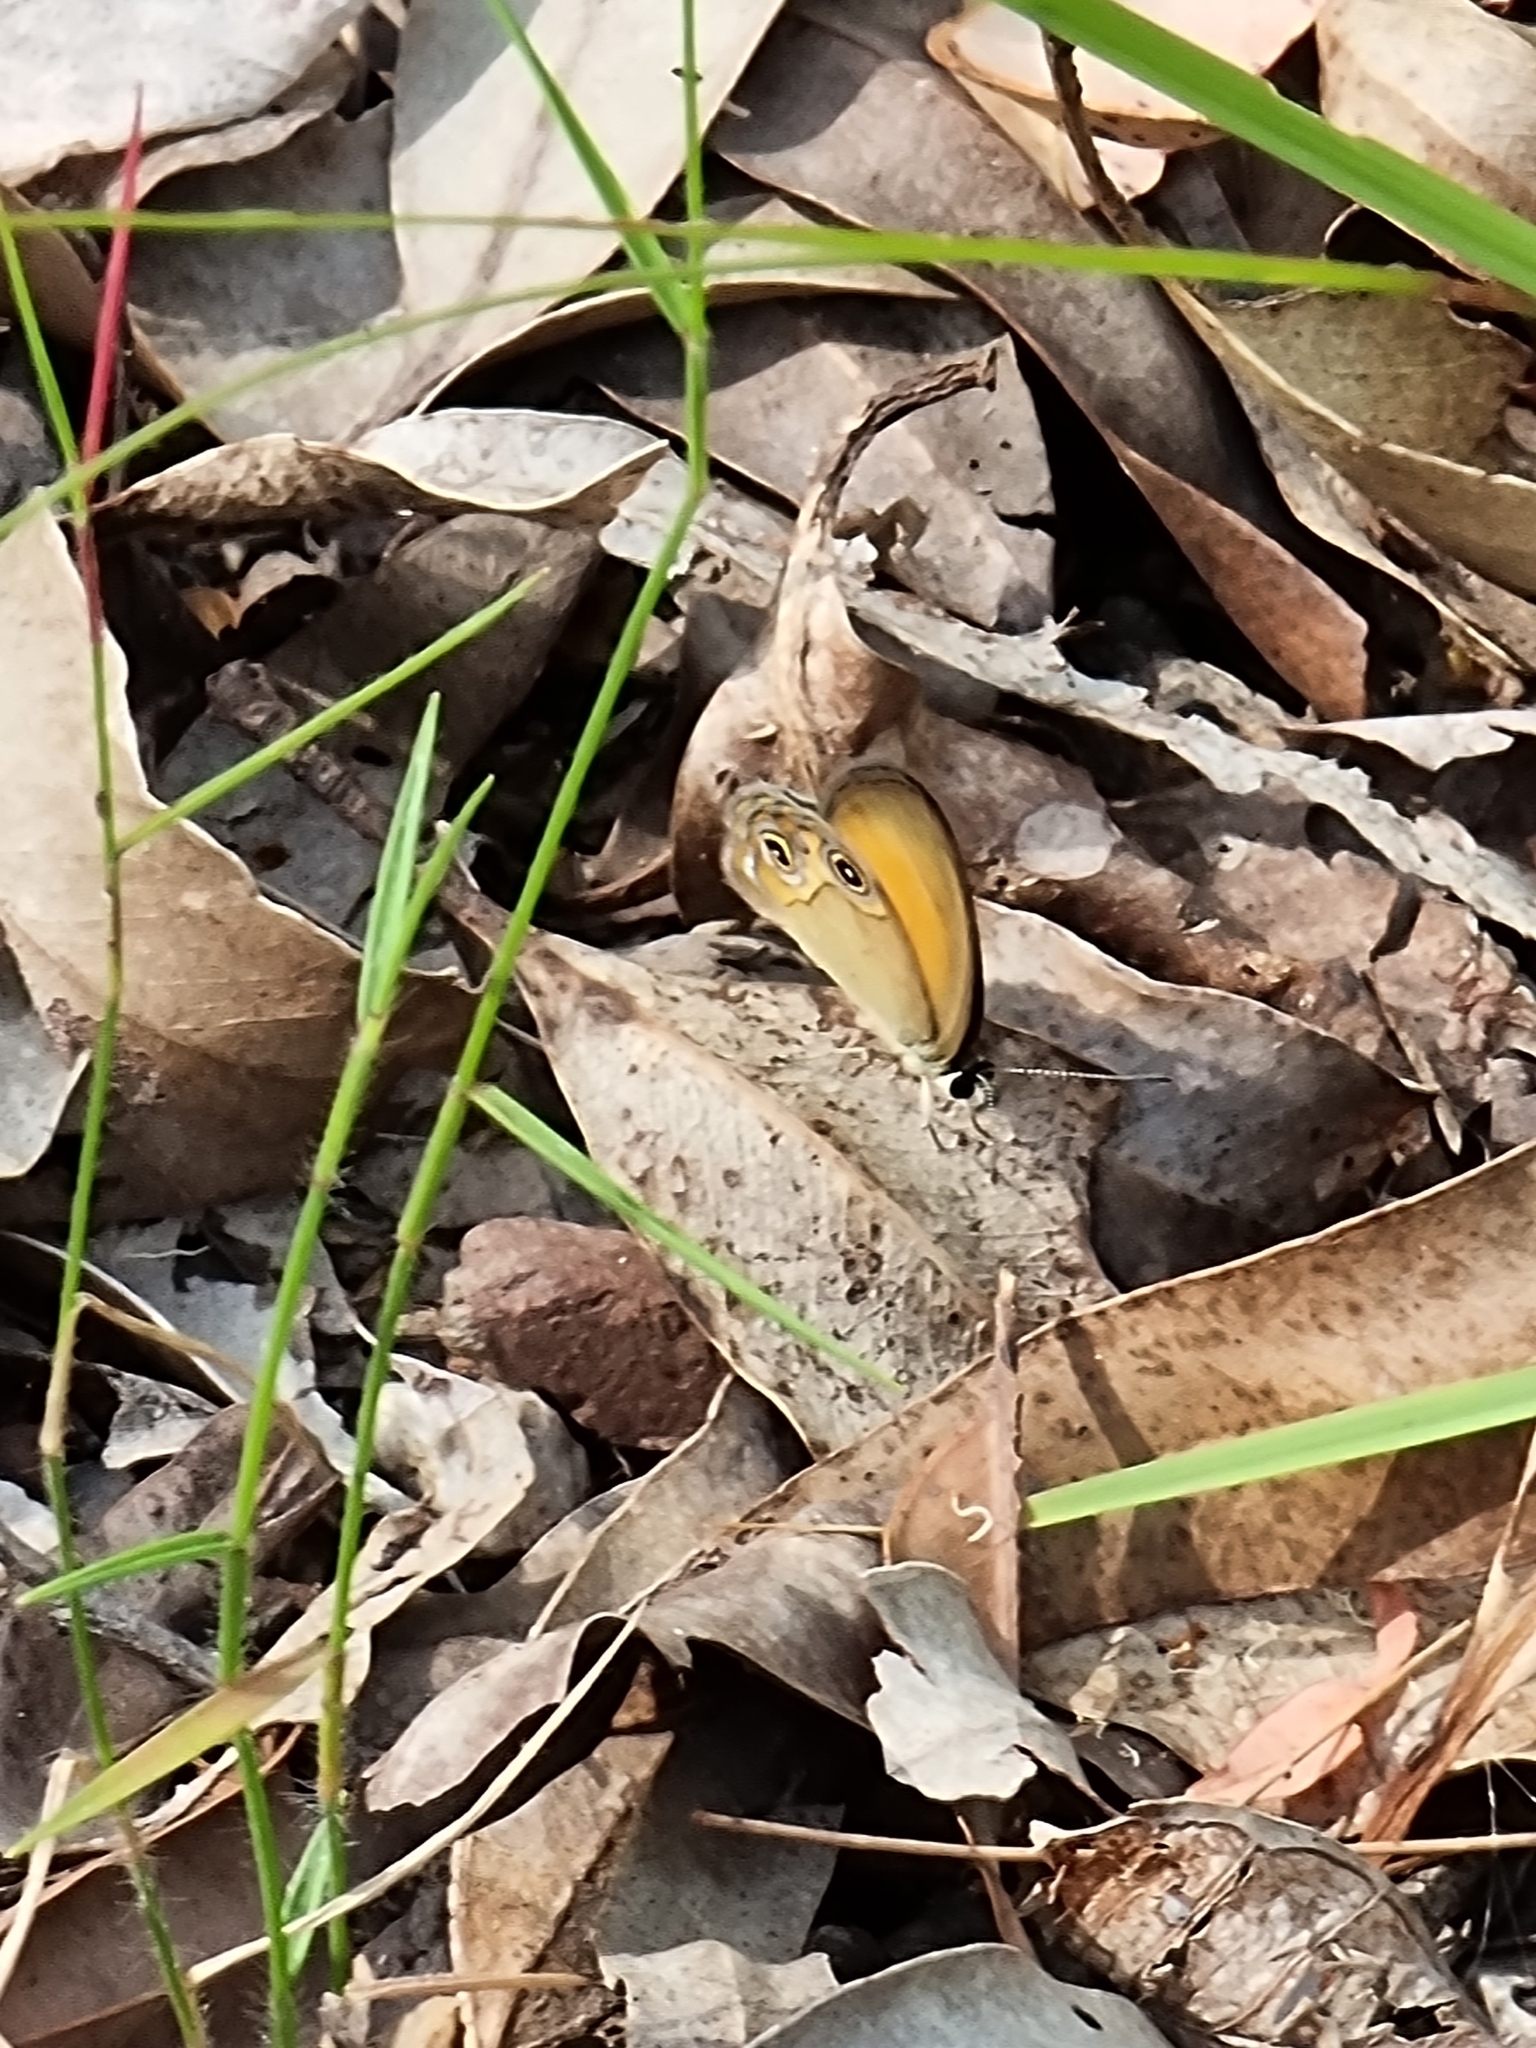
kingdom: Animalia
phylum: Arthropoda
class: Insecta
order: Lepidoptera
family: Nymphalidae
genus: Hypocysta
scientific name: Hypocysta adiante
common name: Orange ringlet
